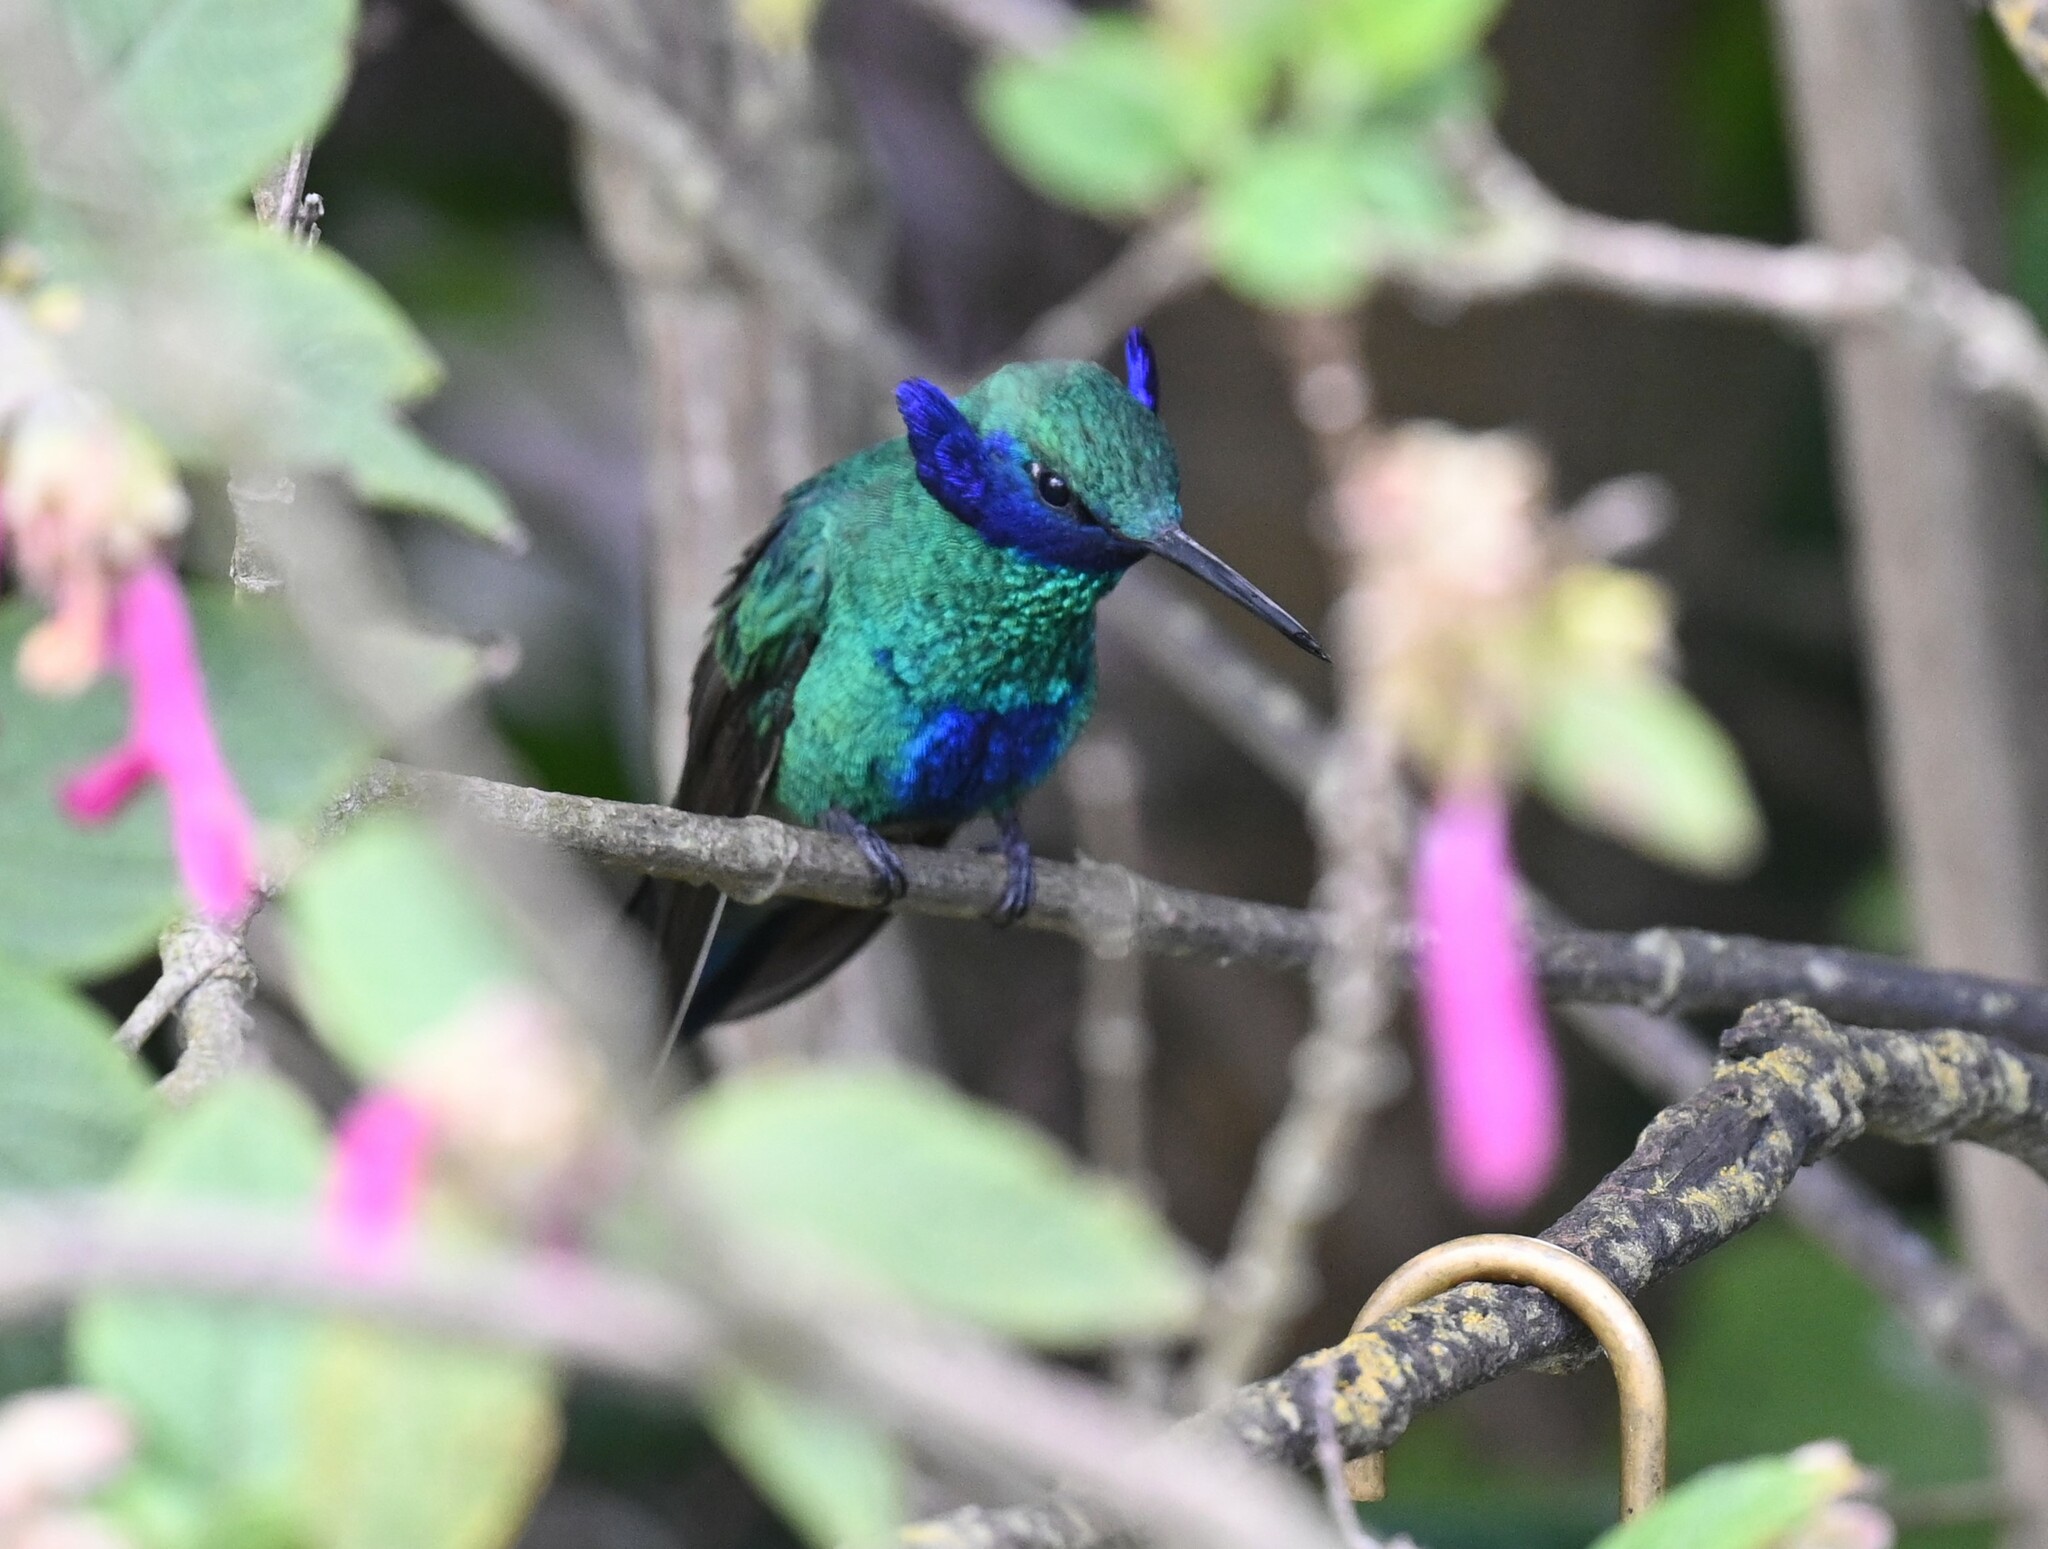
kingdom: Animalia
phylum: Chordata
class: Aves
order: Apodiformes
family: Trochilidae
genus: Colibri
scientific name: Colibri coruscans
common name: Sparkling violetear
